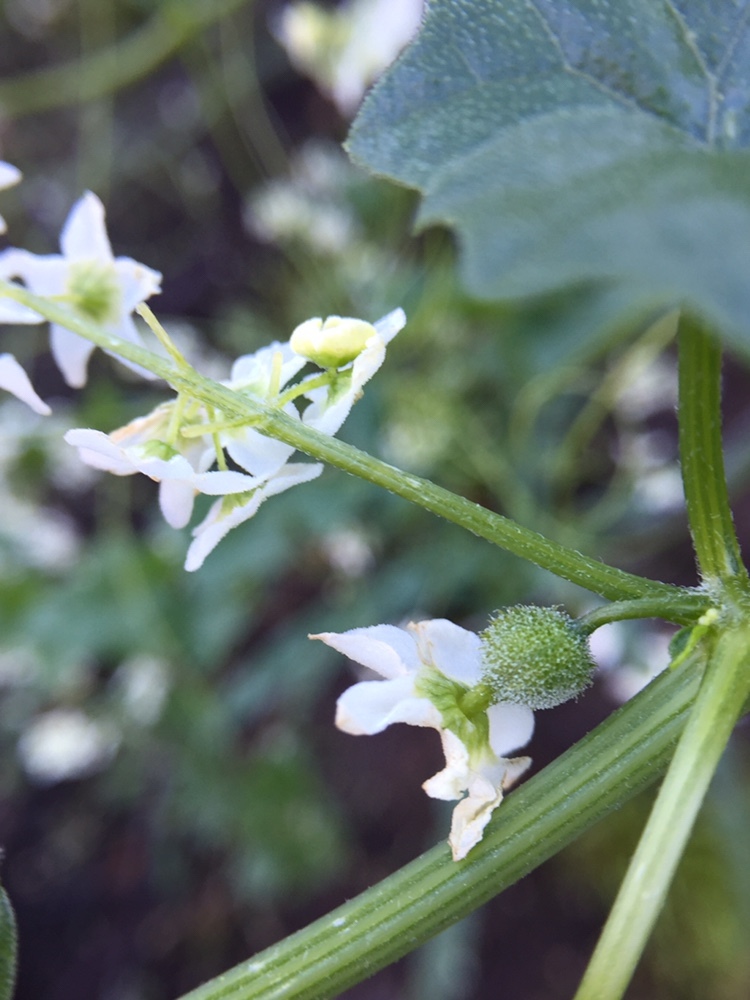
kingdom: Plantae
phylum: Tracheophyta
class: Magnoliopsida
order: Cucurbitales
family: Cucurbitaceae
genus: Marah
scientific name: Marah fabacea
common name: California manroot
